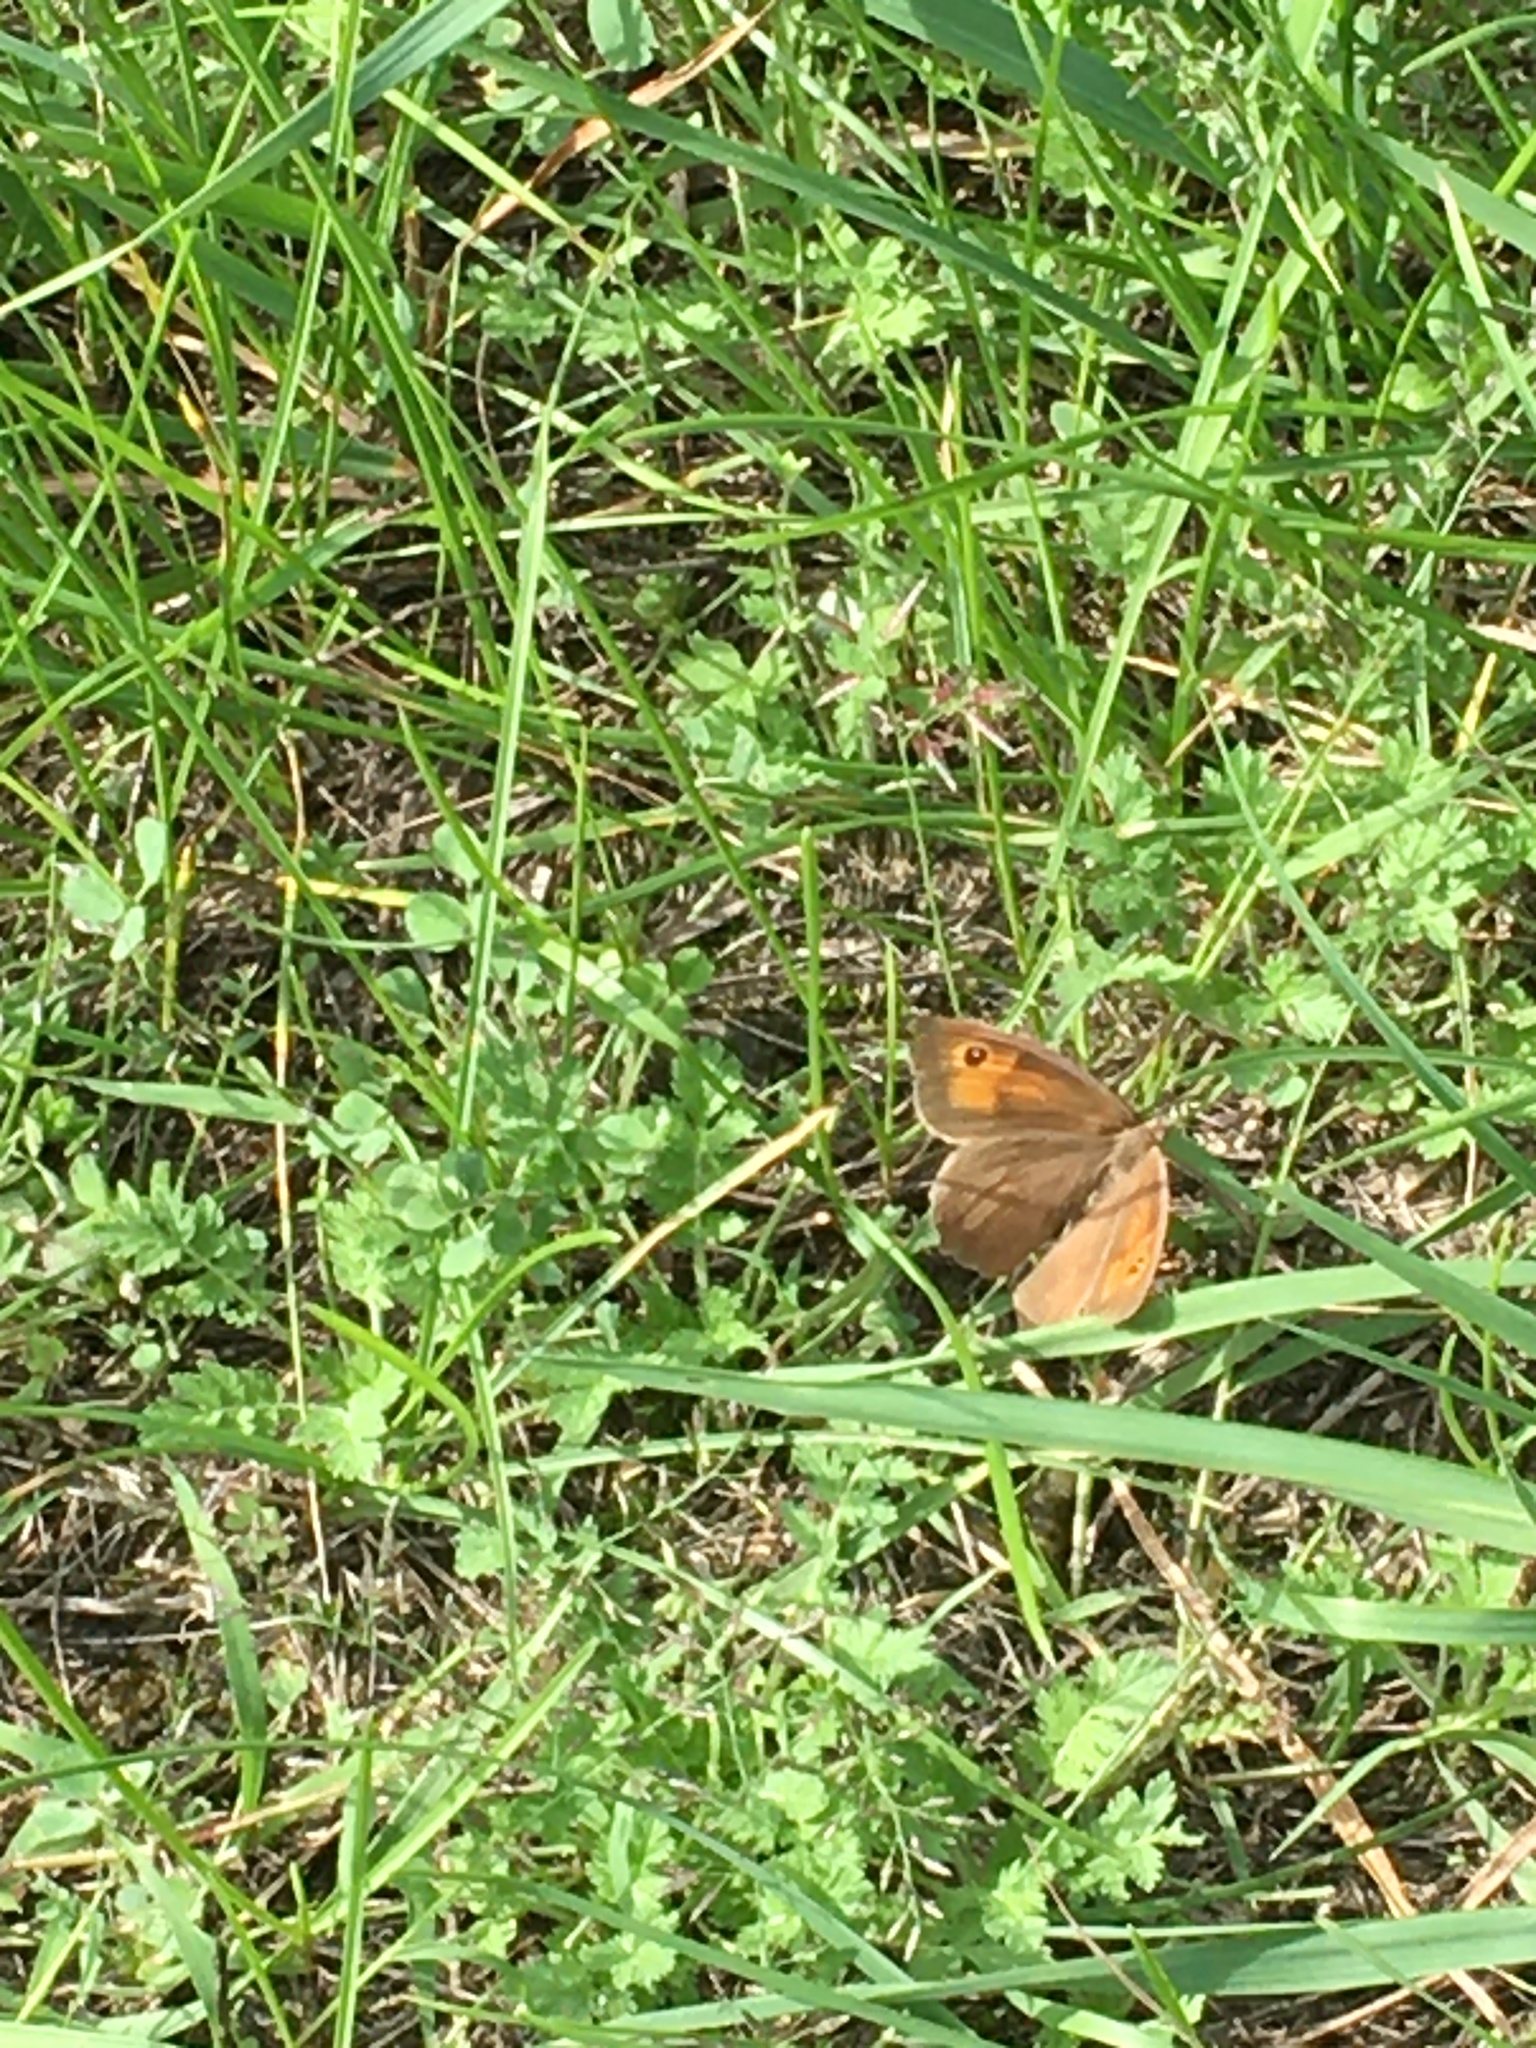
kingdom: Animalia
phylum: Arthropoda
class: Insecta
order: Lepidoptera
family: Nymphalidae
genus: Maniola
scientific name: Maniola jurtina
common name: Meadow brown
